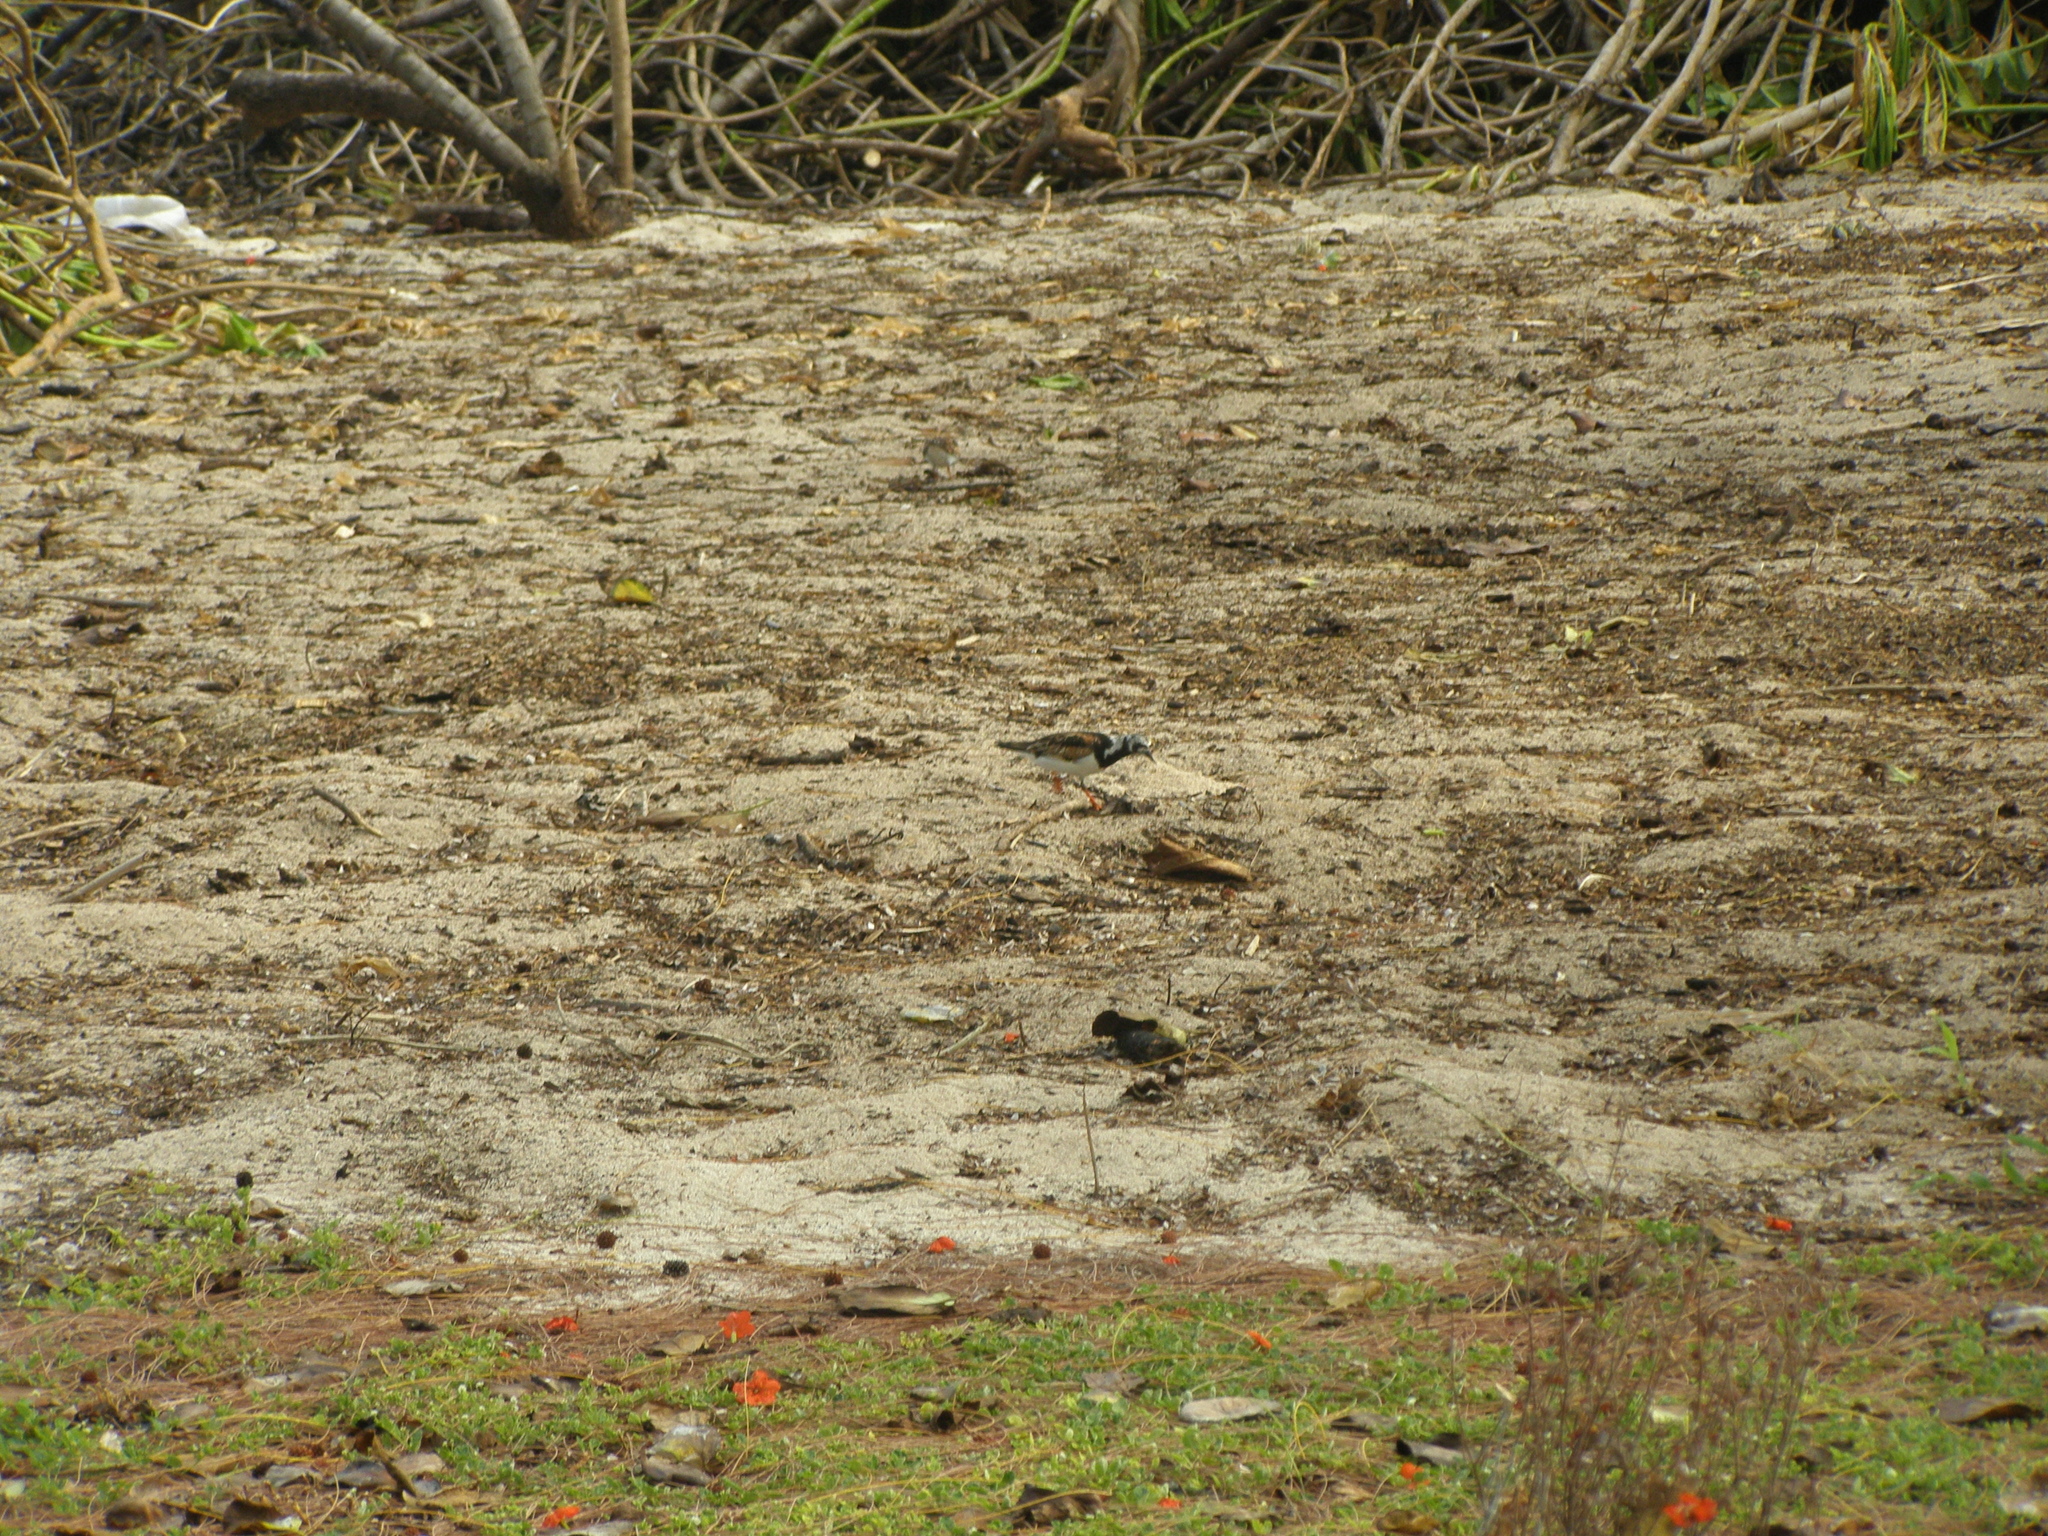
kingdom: Animalia
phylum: Chordata
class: Aves
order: Charadriiformes
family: Scolopacidae
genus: Arenaria
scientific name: Arenaria interpres
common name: Ruddy turnstone
